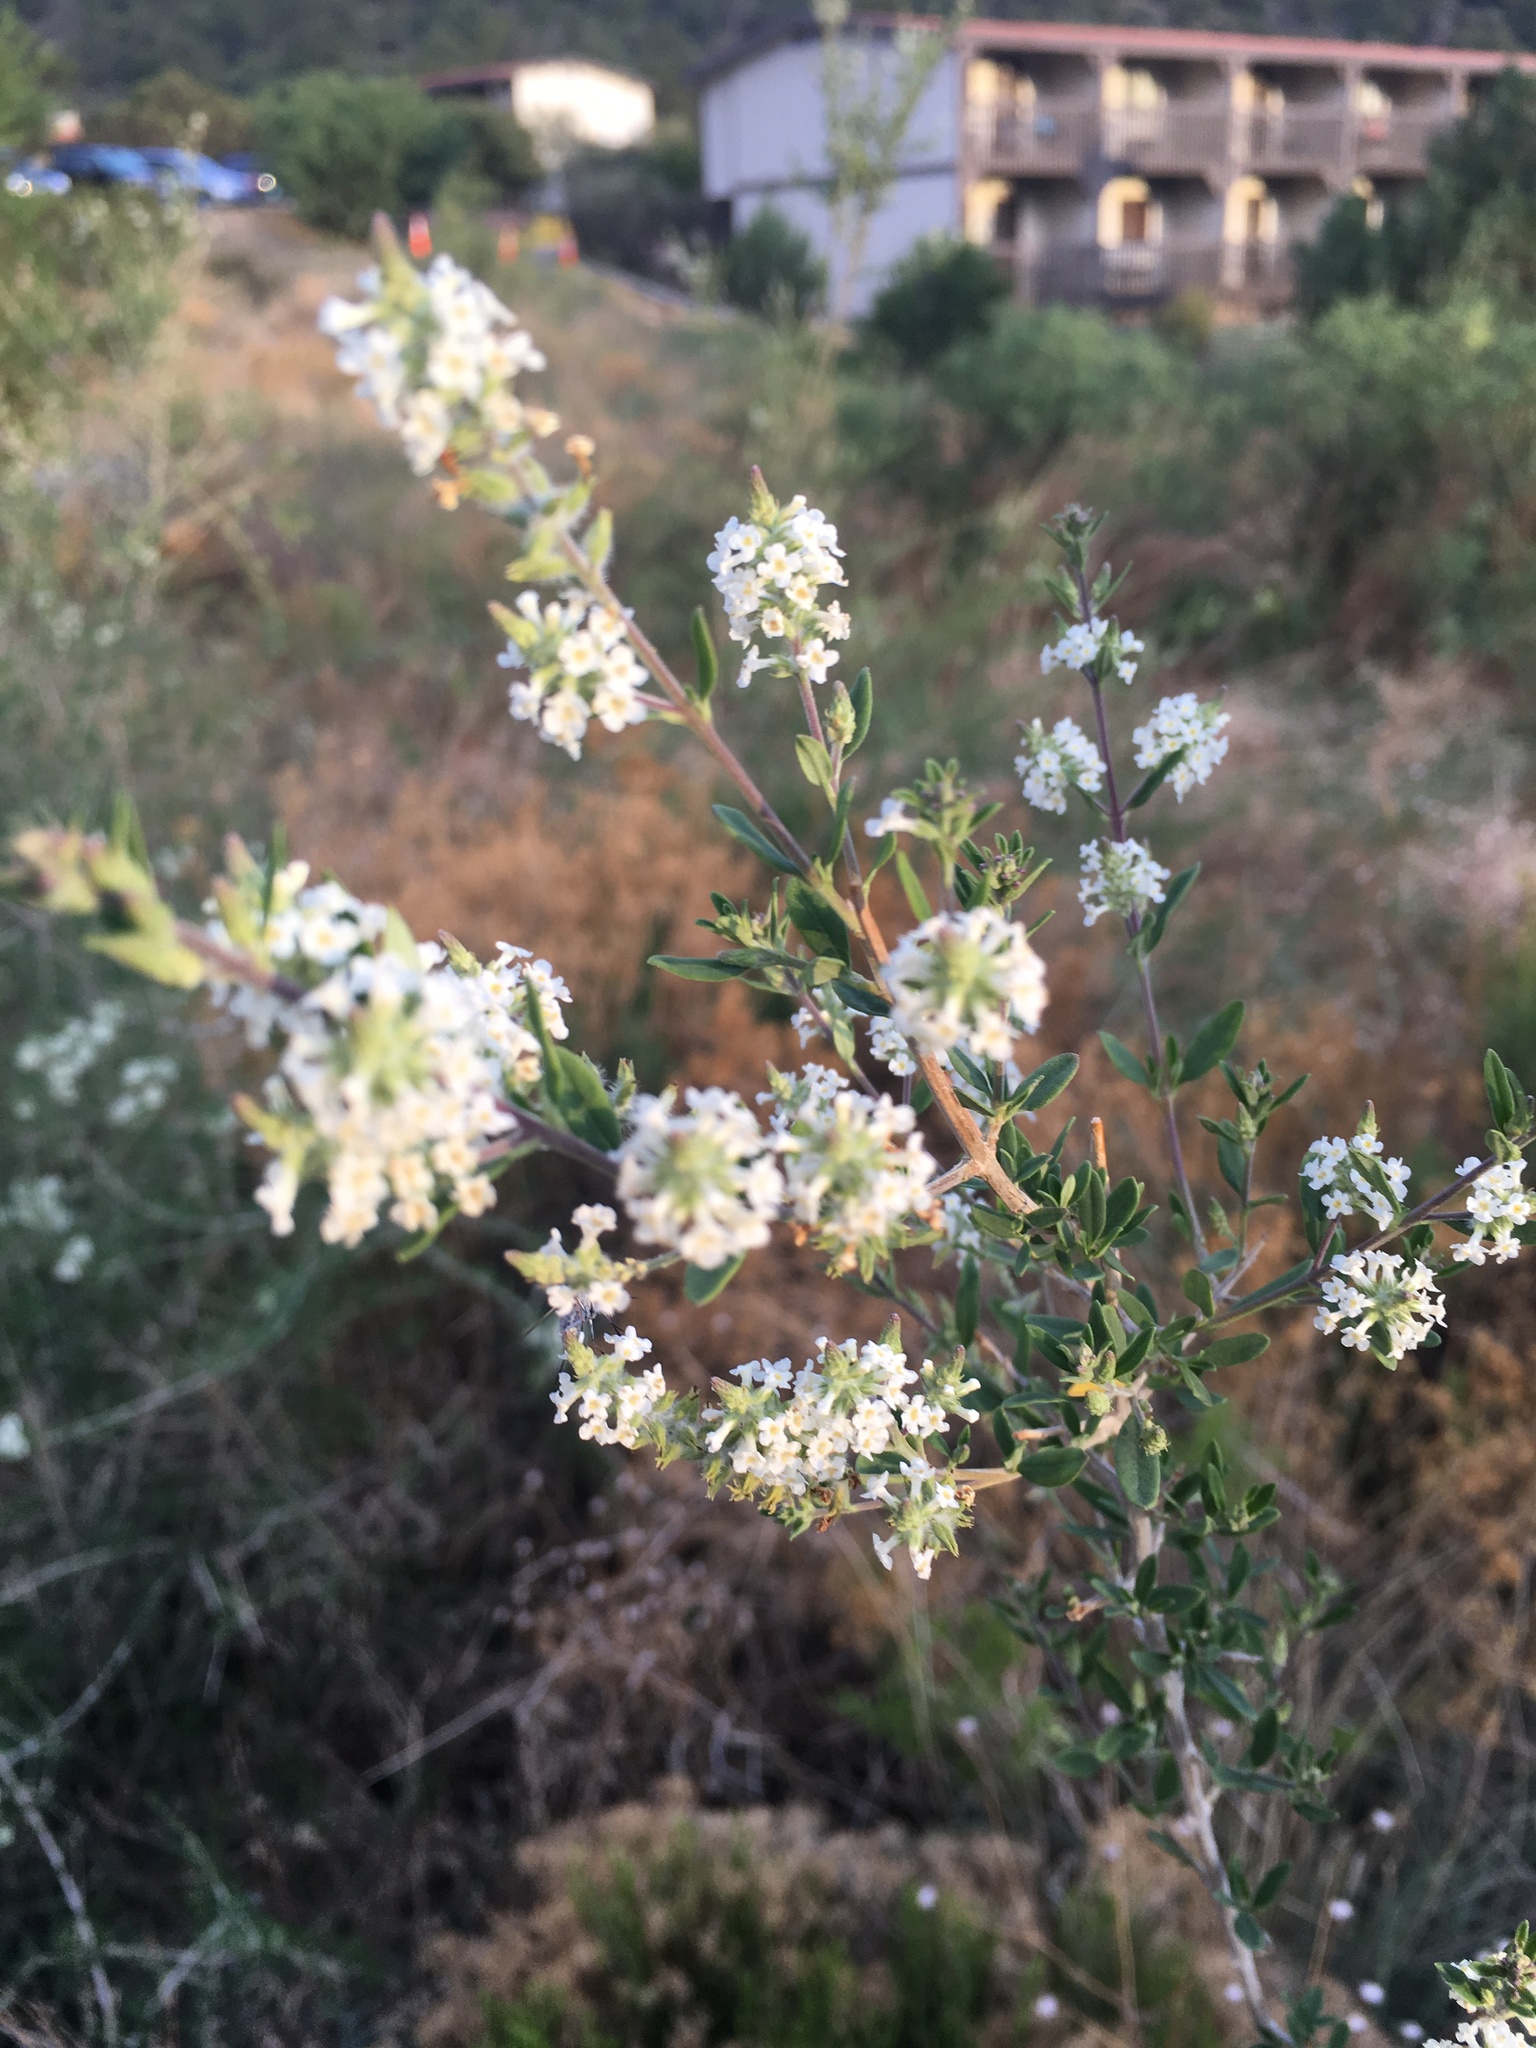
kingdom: Plantae
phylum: Tracheophyta
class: Magnoliopsida
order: Lamiales
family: Verbenaceae
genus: Aloysia
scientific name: Aloysia gratissima
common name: Common bee-brush
